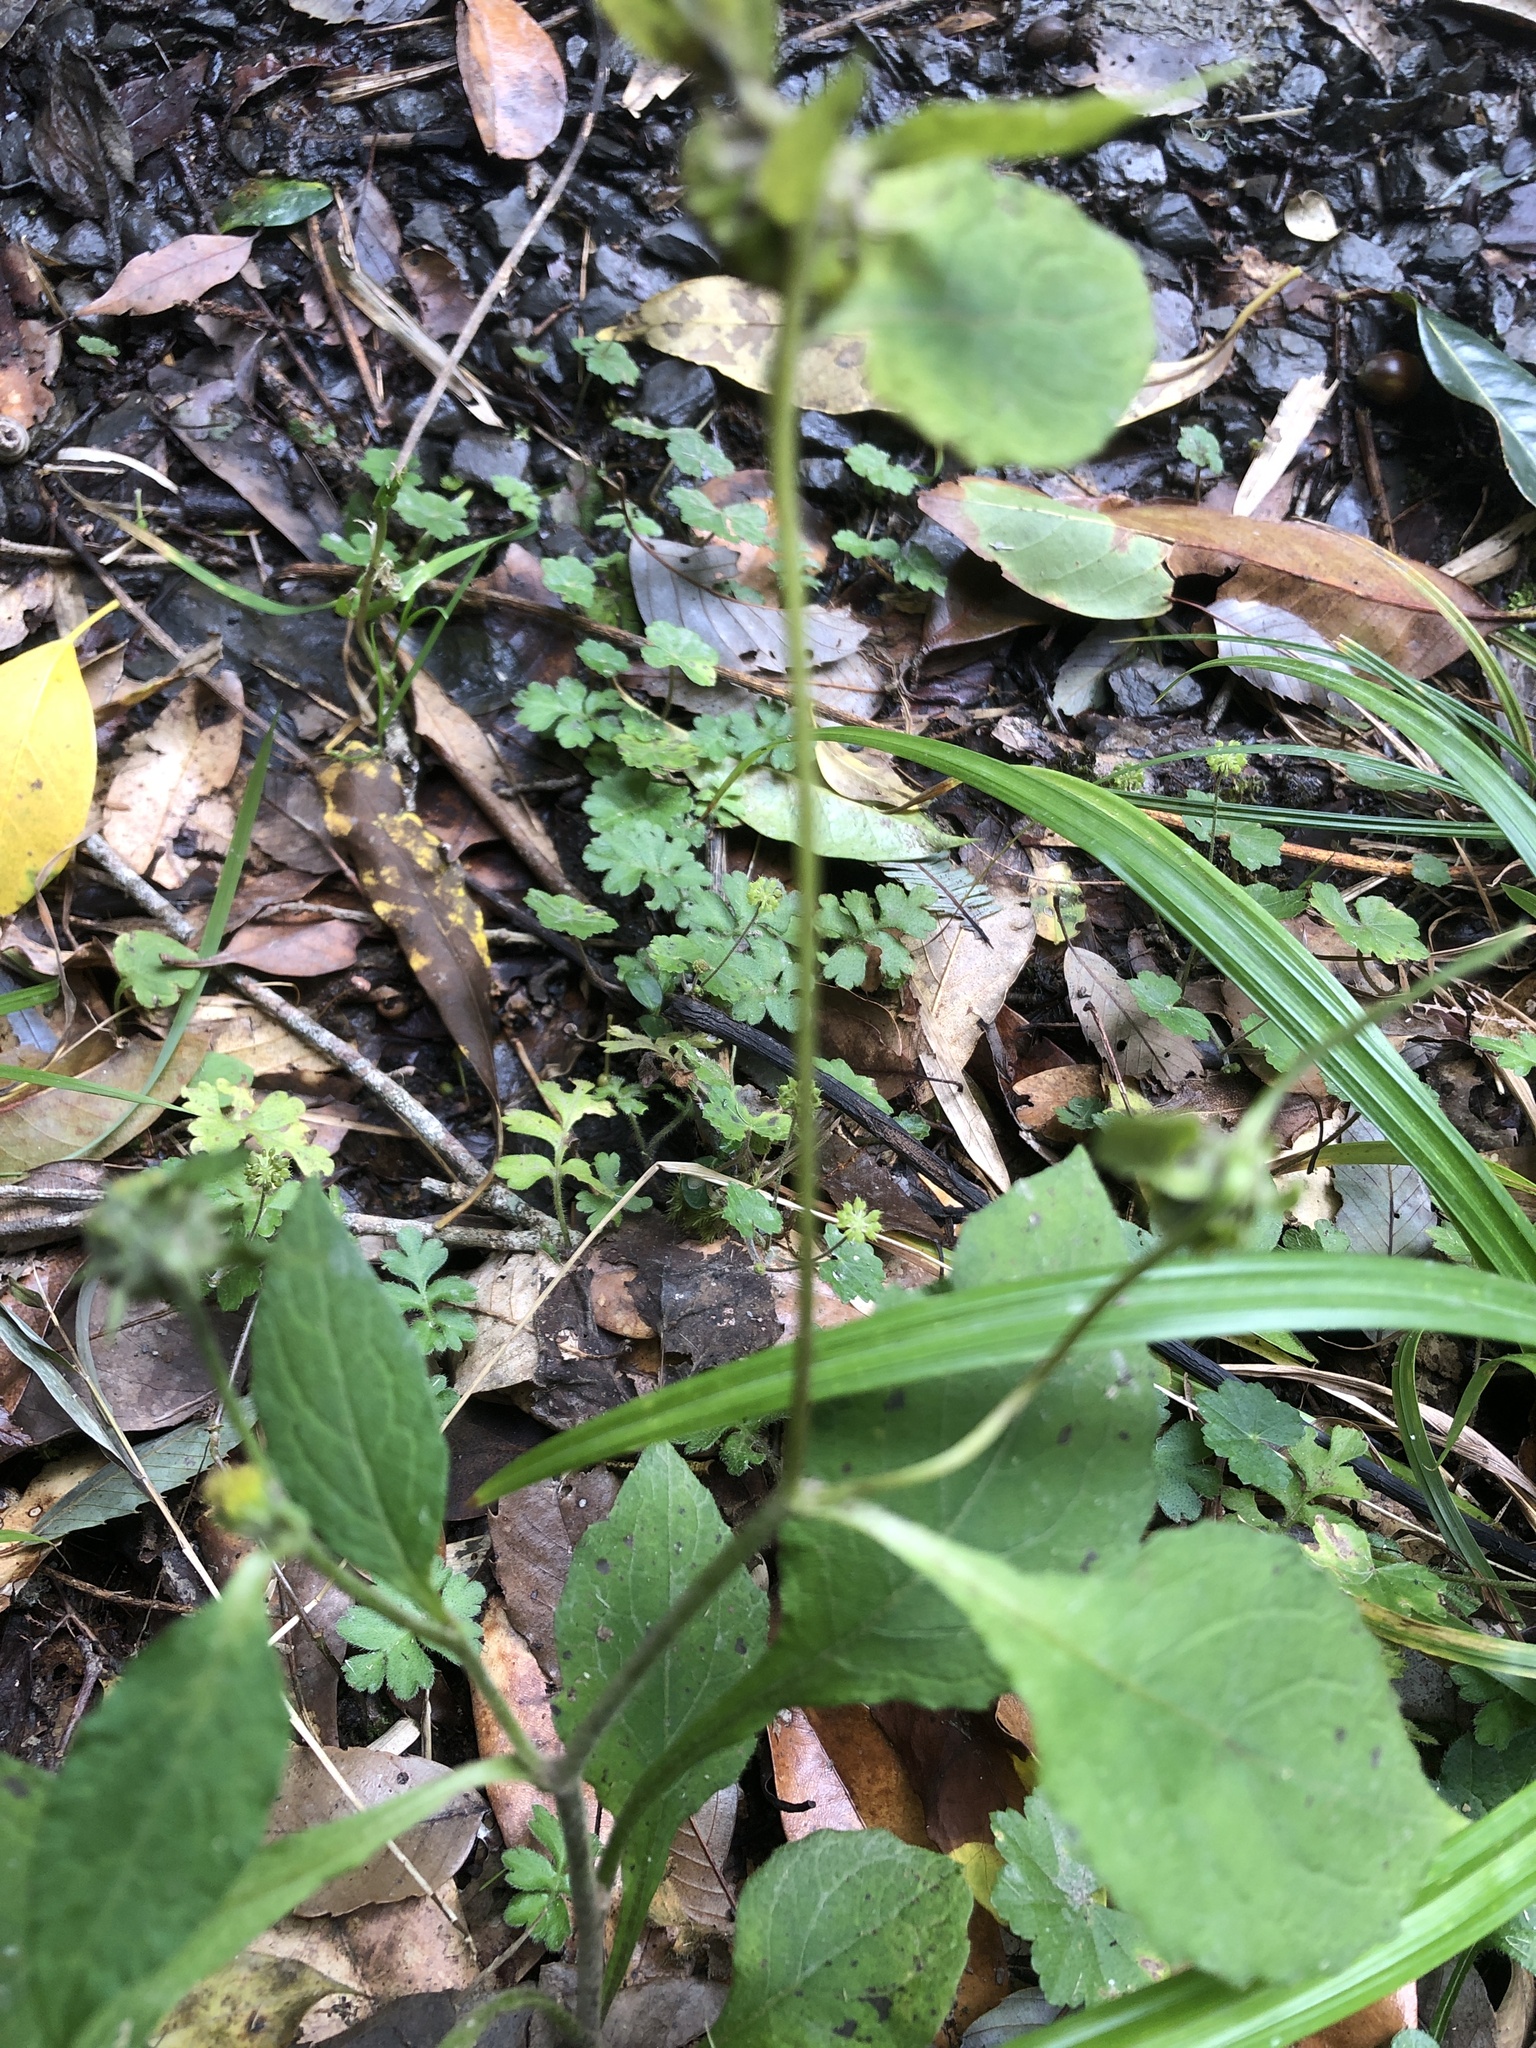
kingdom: Plantae
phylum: Tracheophyta
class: Magnoliopsida
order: Asterales
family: Asteraceae
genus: Carpesium
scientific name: Carpesium nepalense
